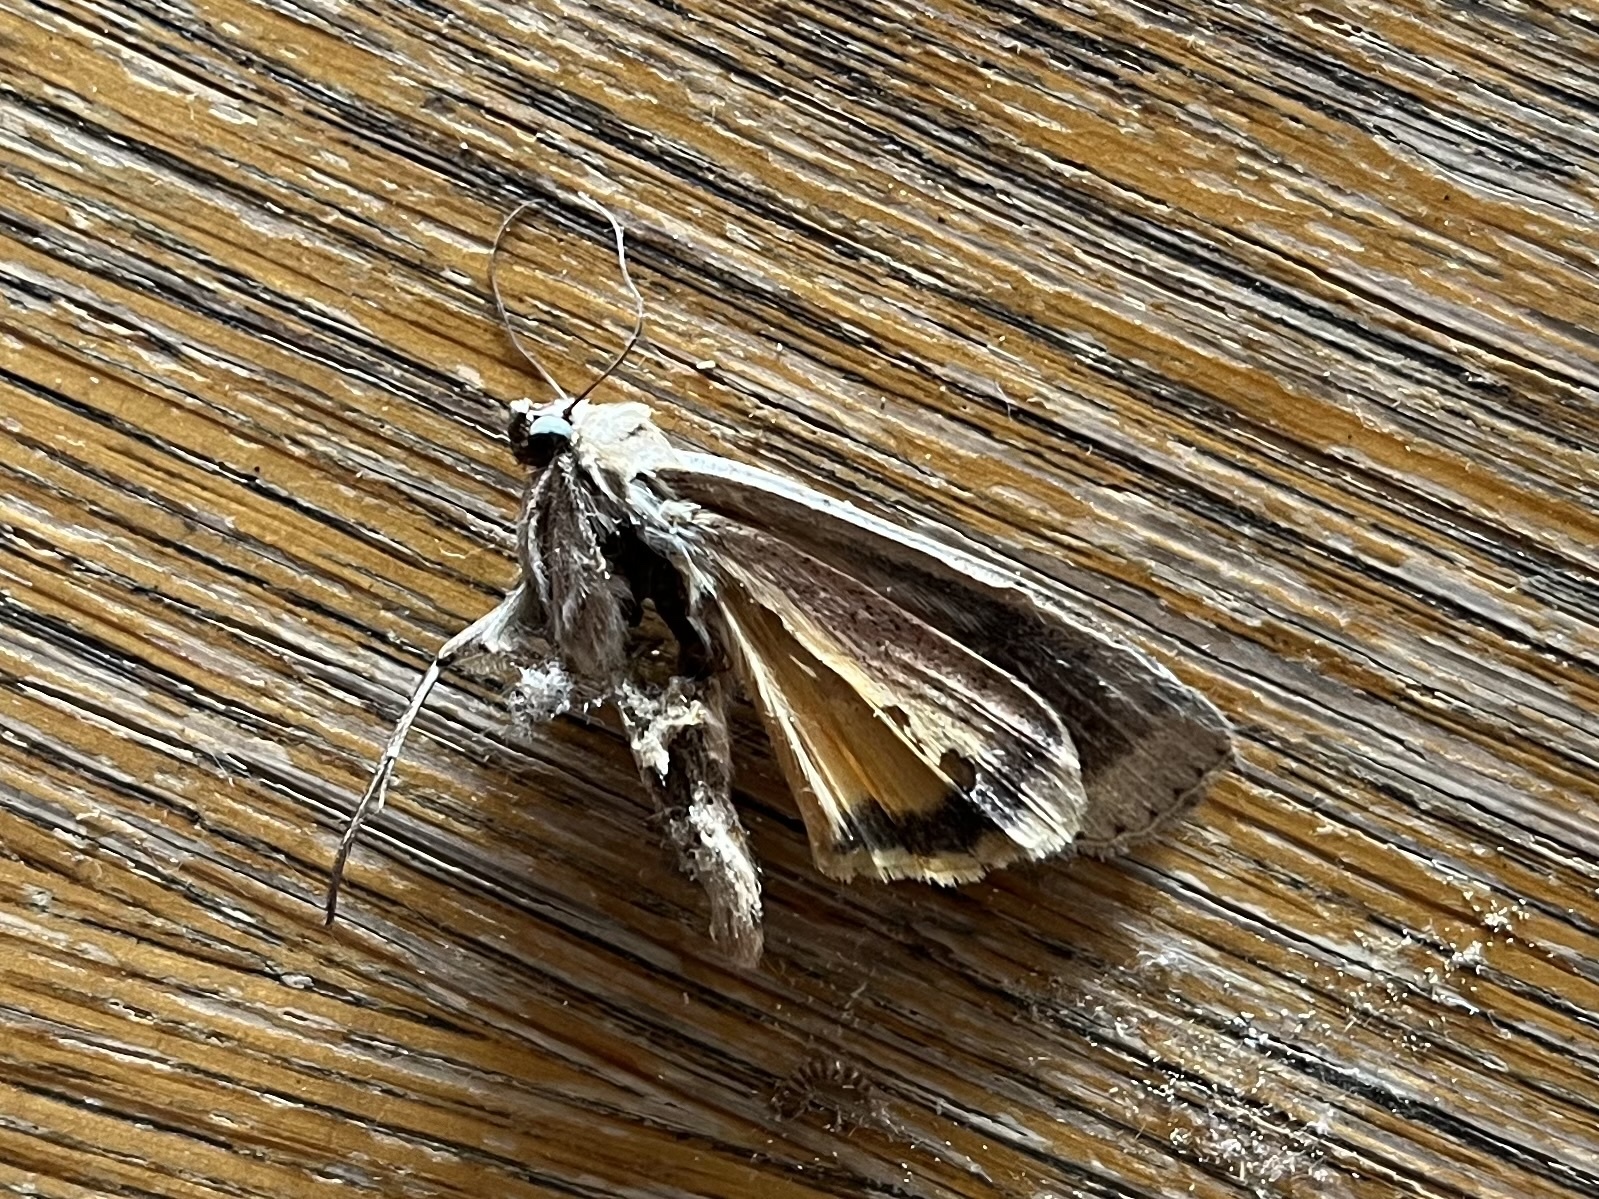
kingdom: Animalia
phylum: Arthropoda
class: Insecta
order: Lepidoptera
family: Noctuidae
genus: Noctua
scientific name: Noctua pronuba
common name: Large yellow underwing
